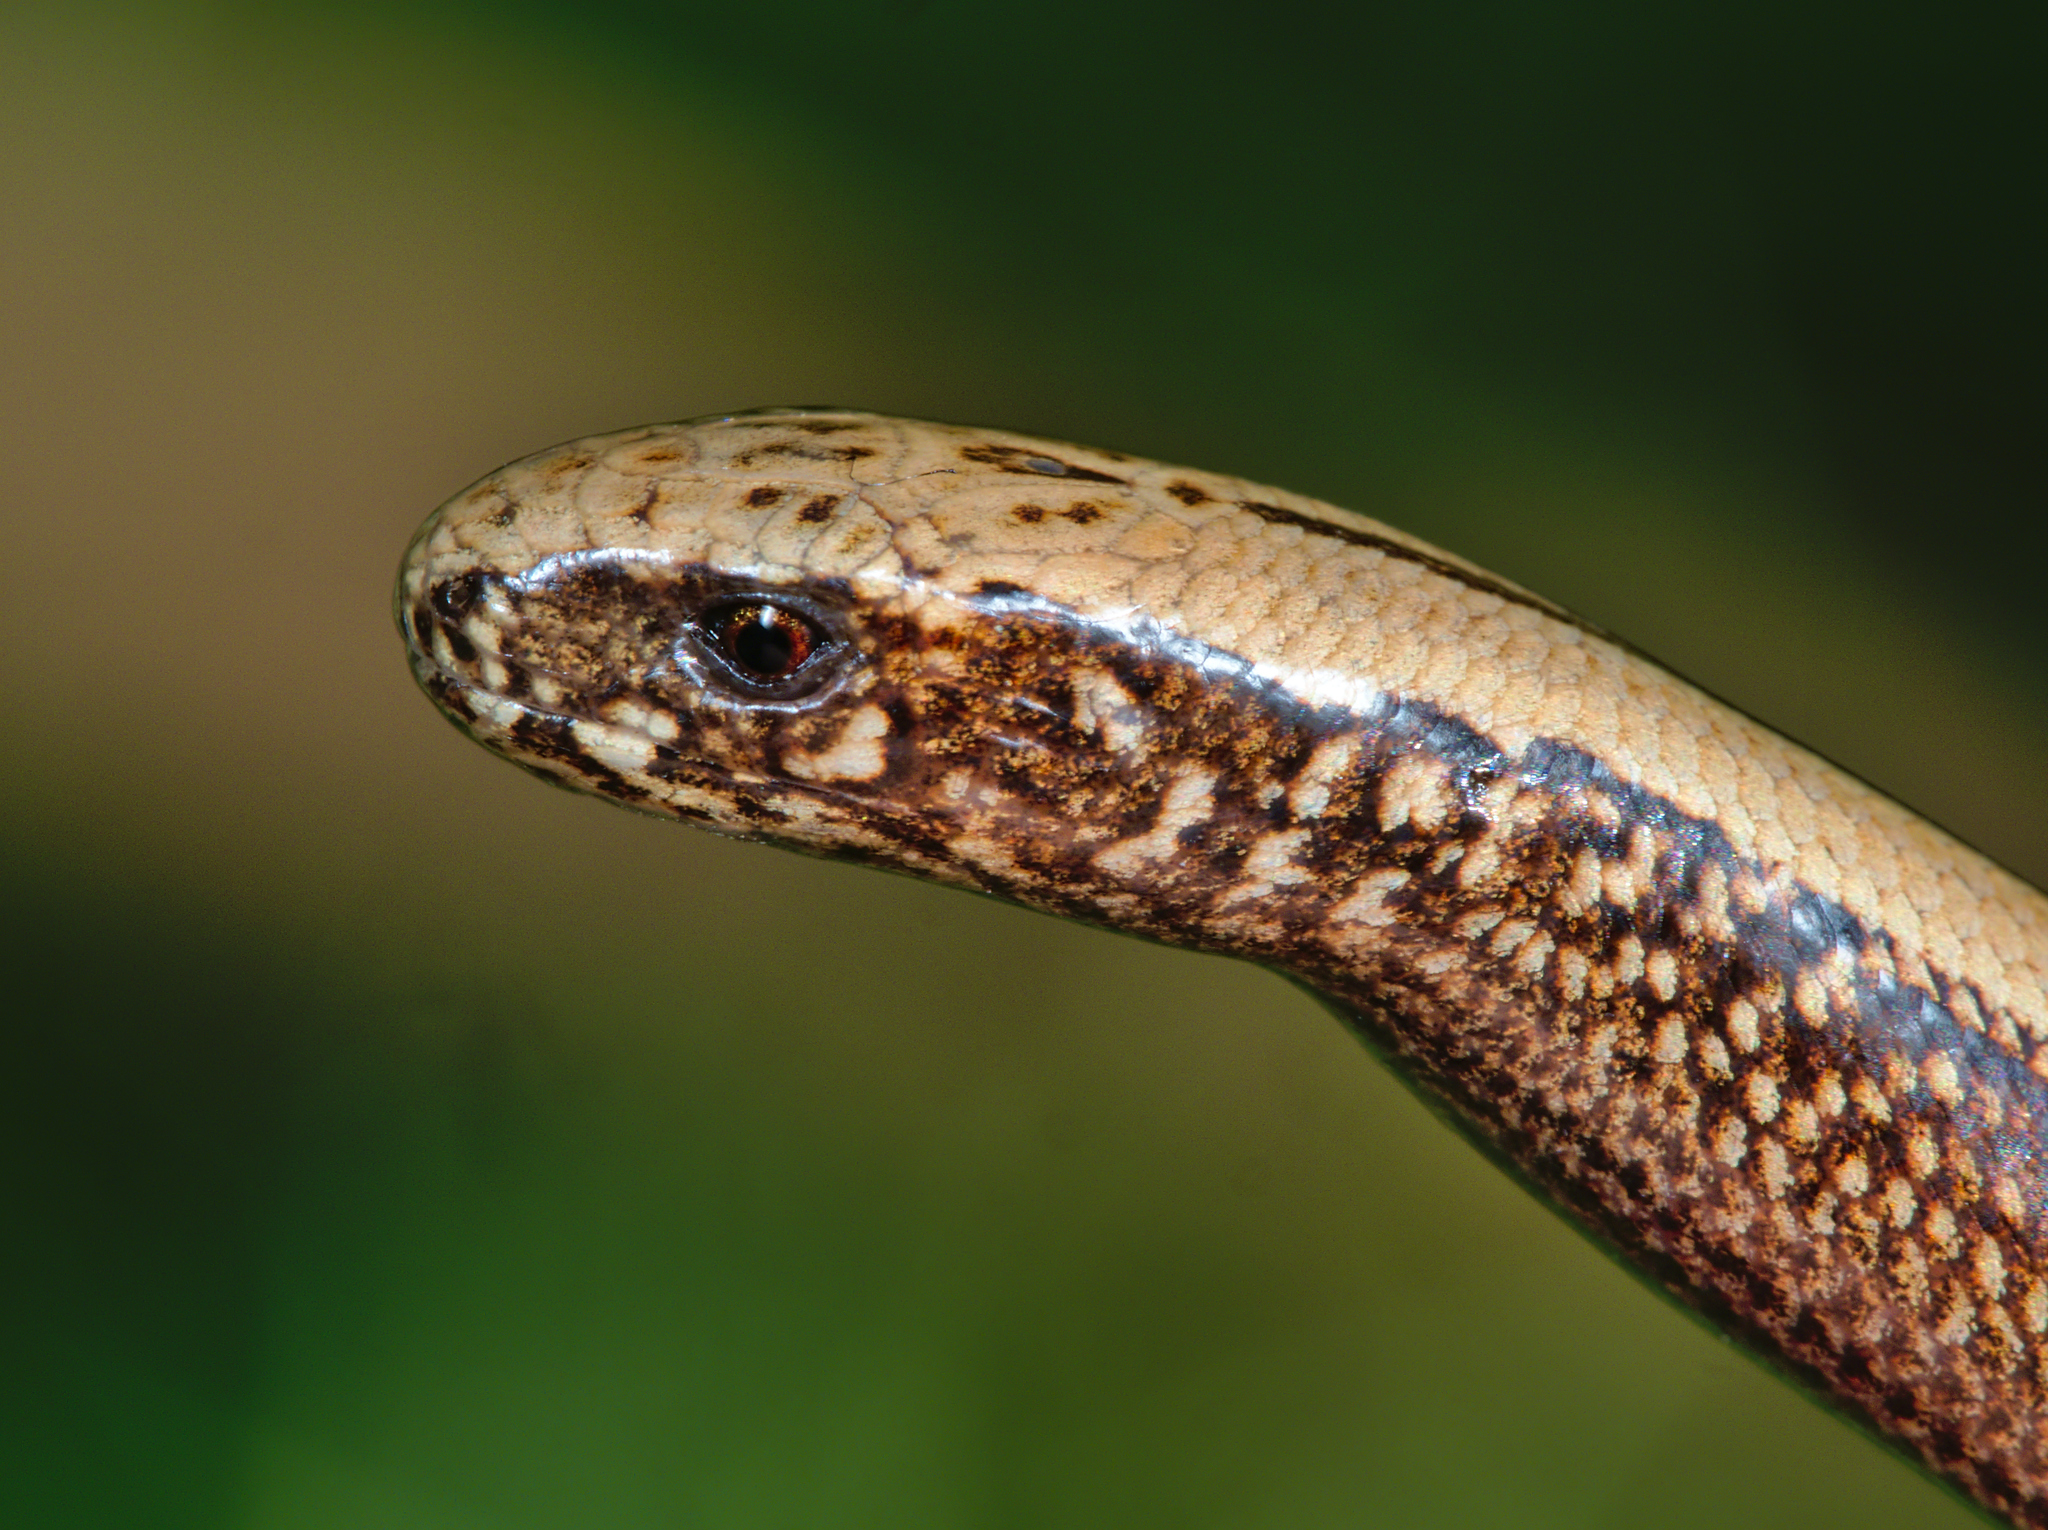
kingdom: Animalia
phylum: Chordata
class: Squamata
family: Anguidae
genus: Anguis
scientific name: Anguis fragilis
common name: Slow worm
